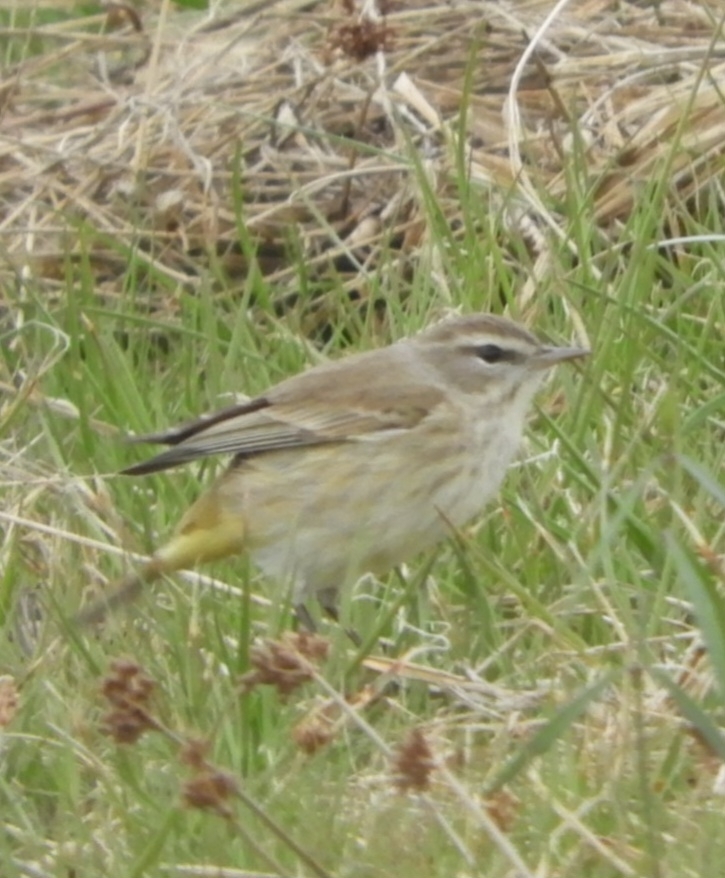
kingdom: Animalia
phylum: Chordata
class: Aves
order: Passeriformes
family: Parulidae
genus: Setophaga
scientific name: Setophaga palmarum
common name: Palm warbler
